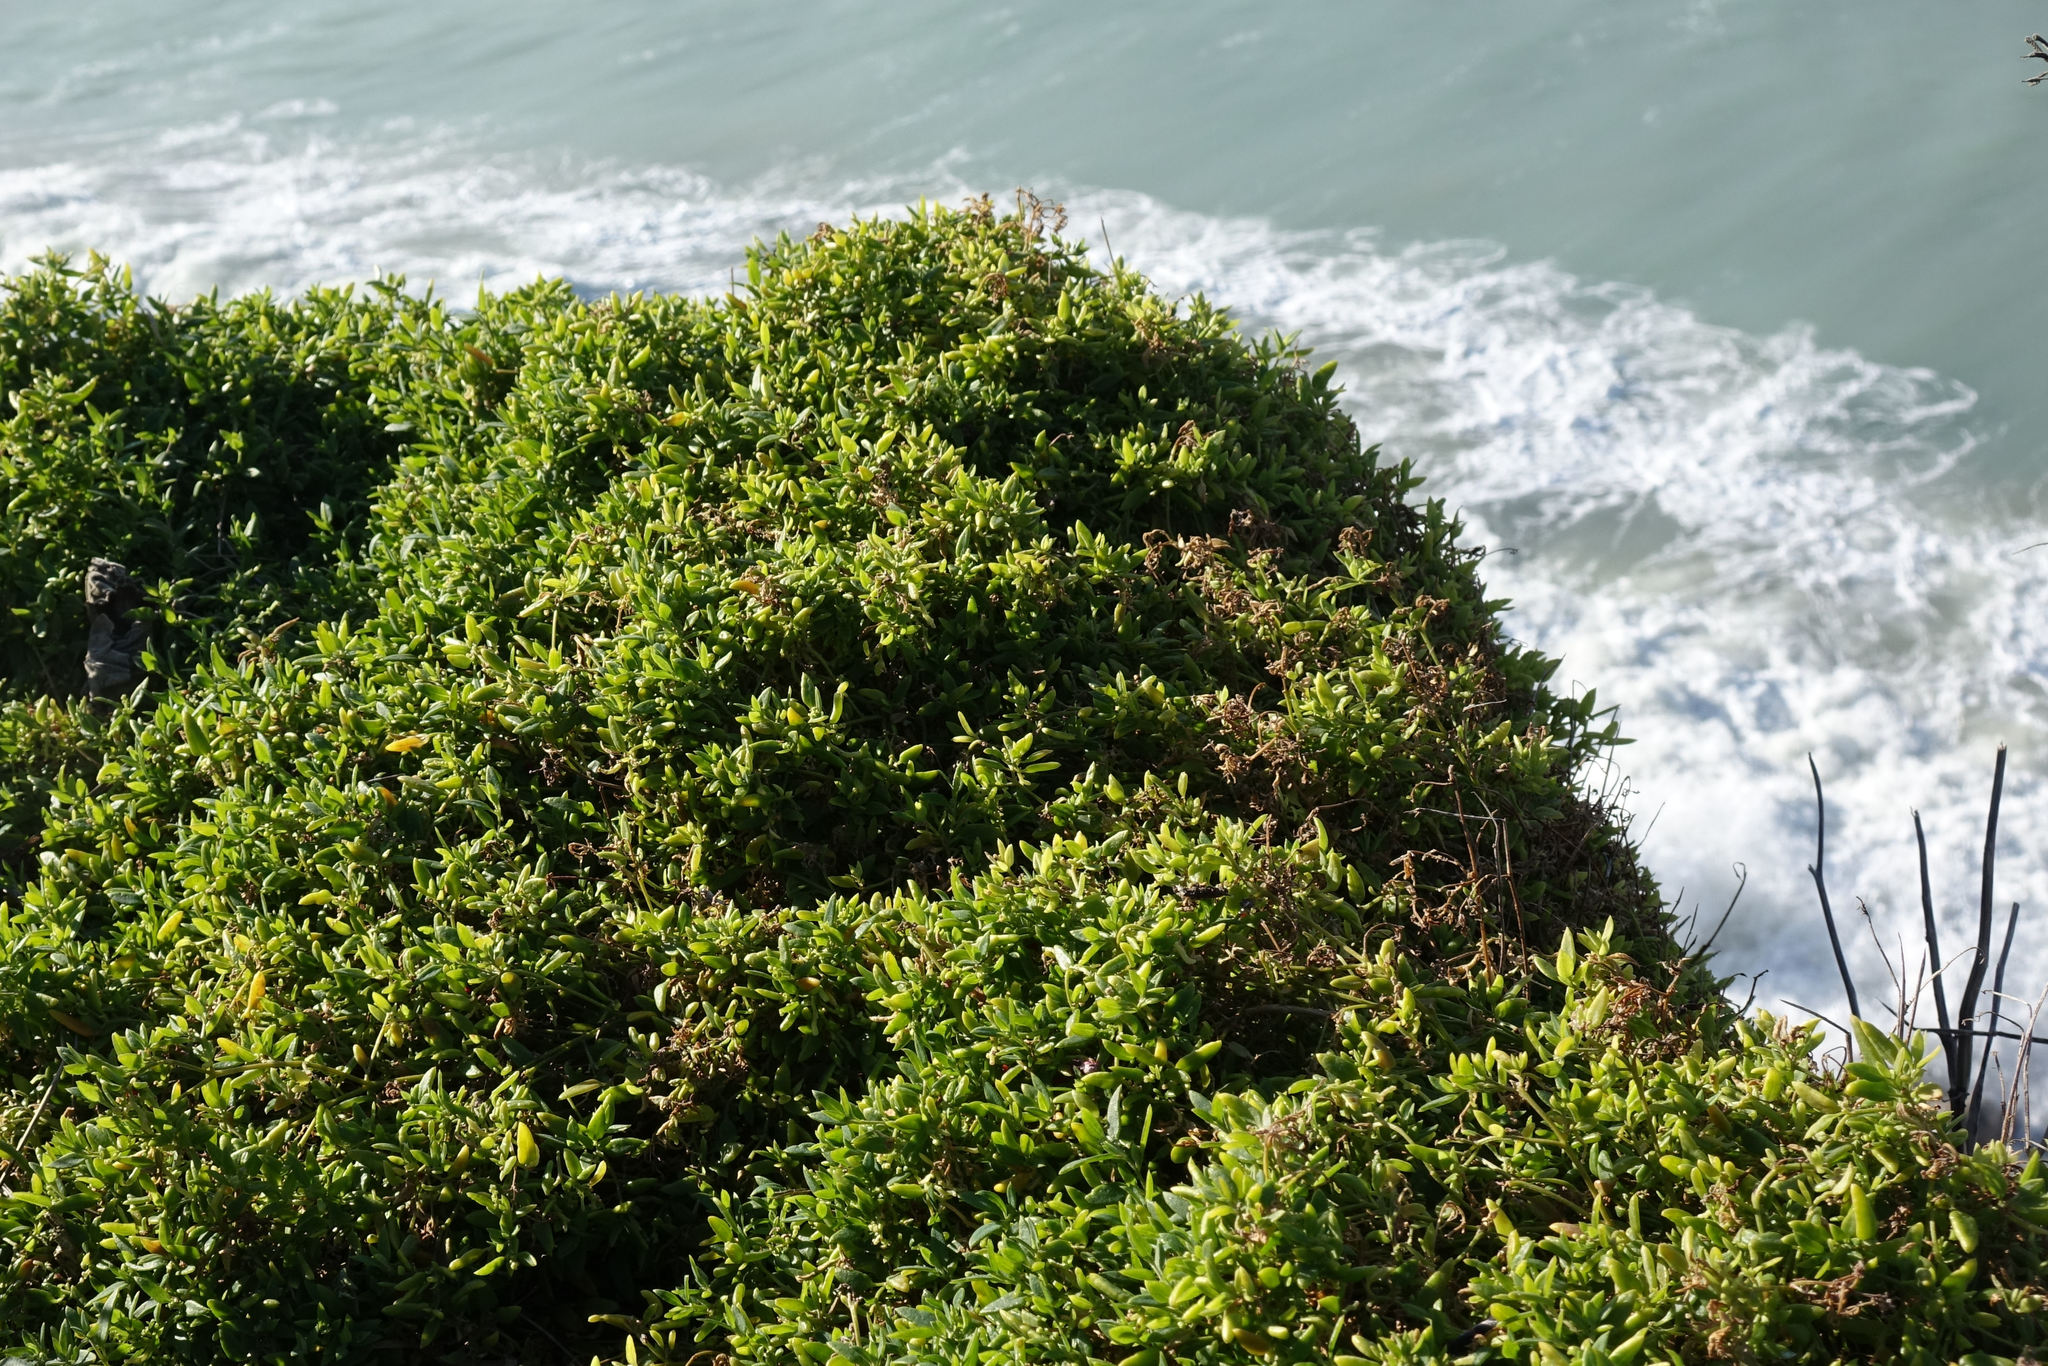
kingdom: Plantae
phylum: Tracheophyta
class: Magnoliopsida
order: Caryophyllales
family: Amaranthaceae
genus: Chenopodium
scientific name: Chenopodium nutans
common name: Climbing-saltbush
